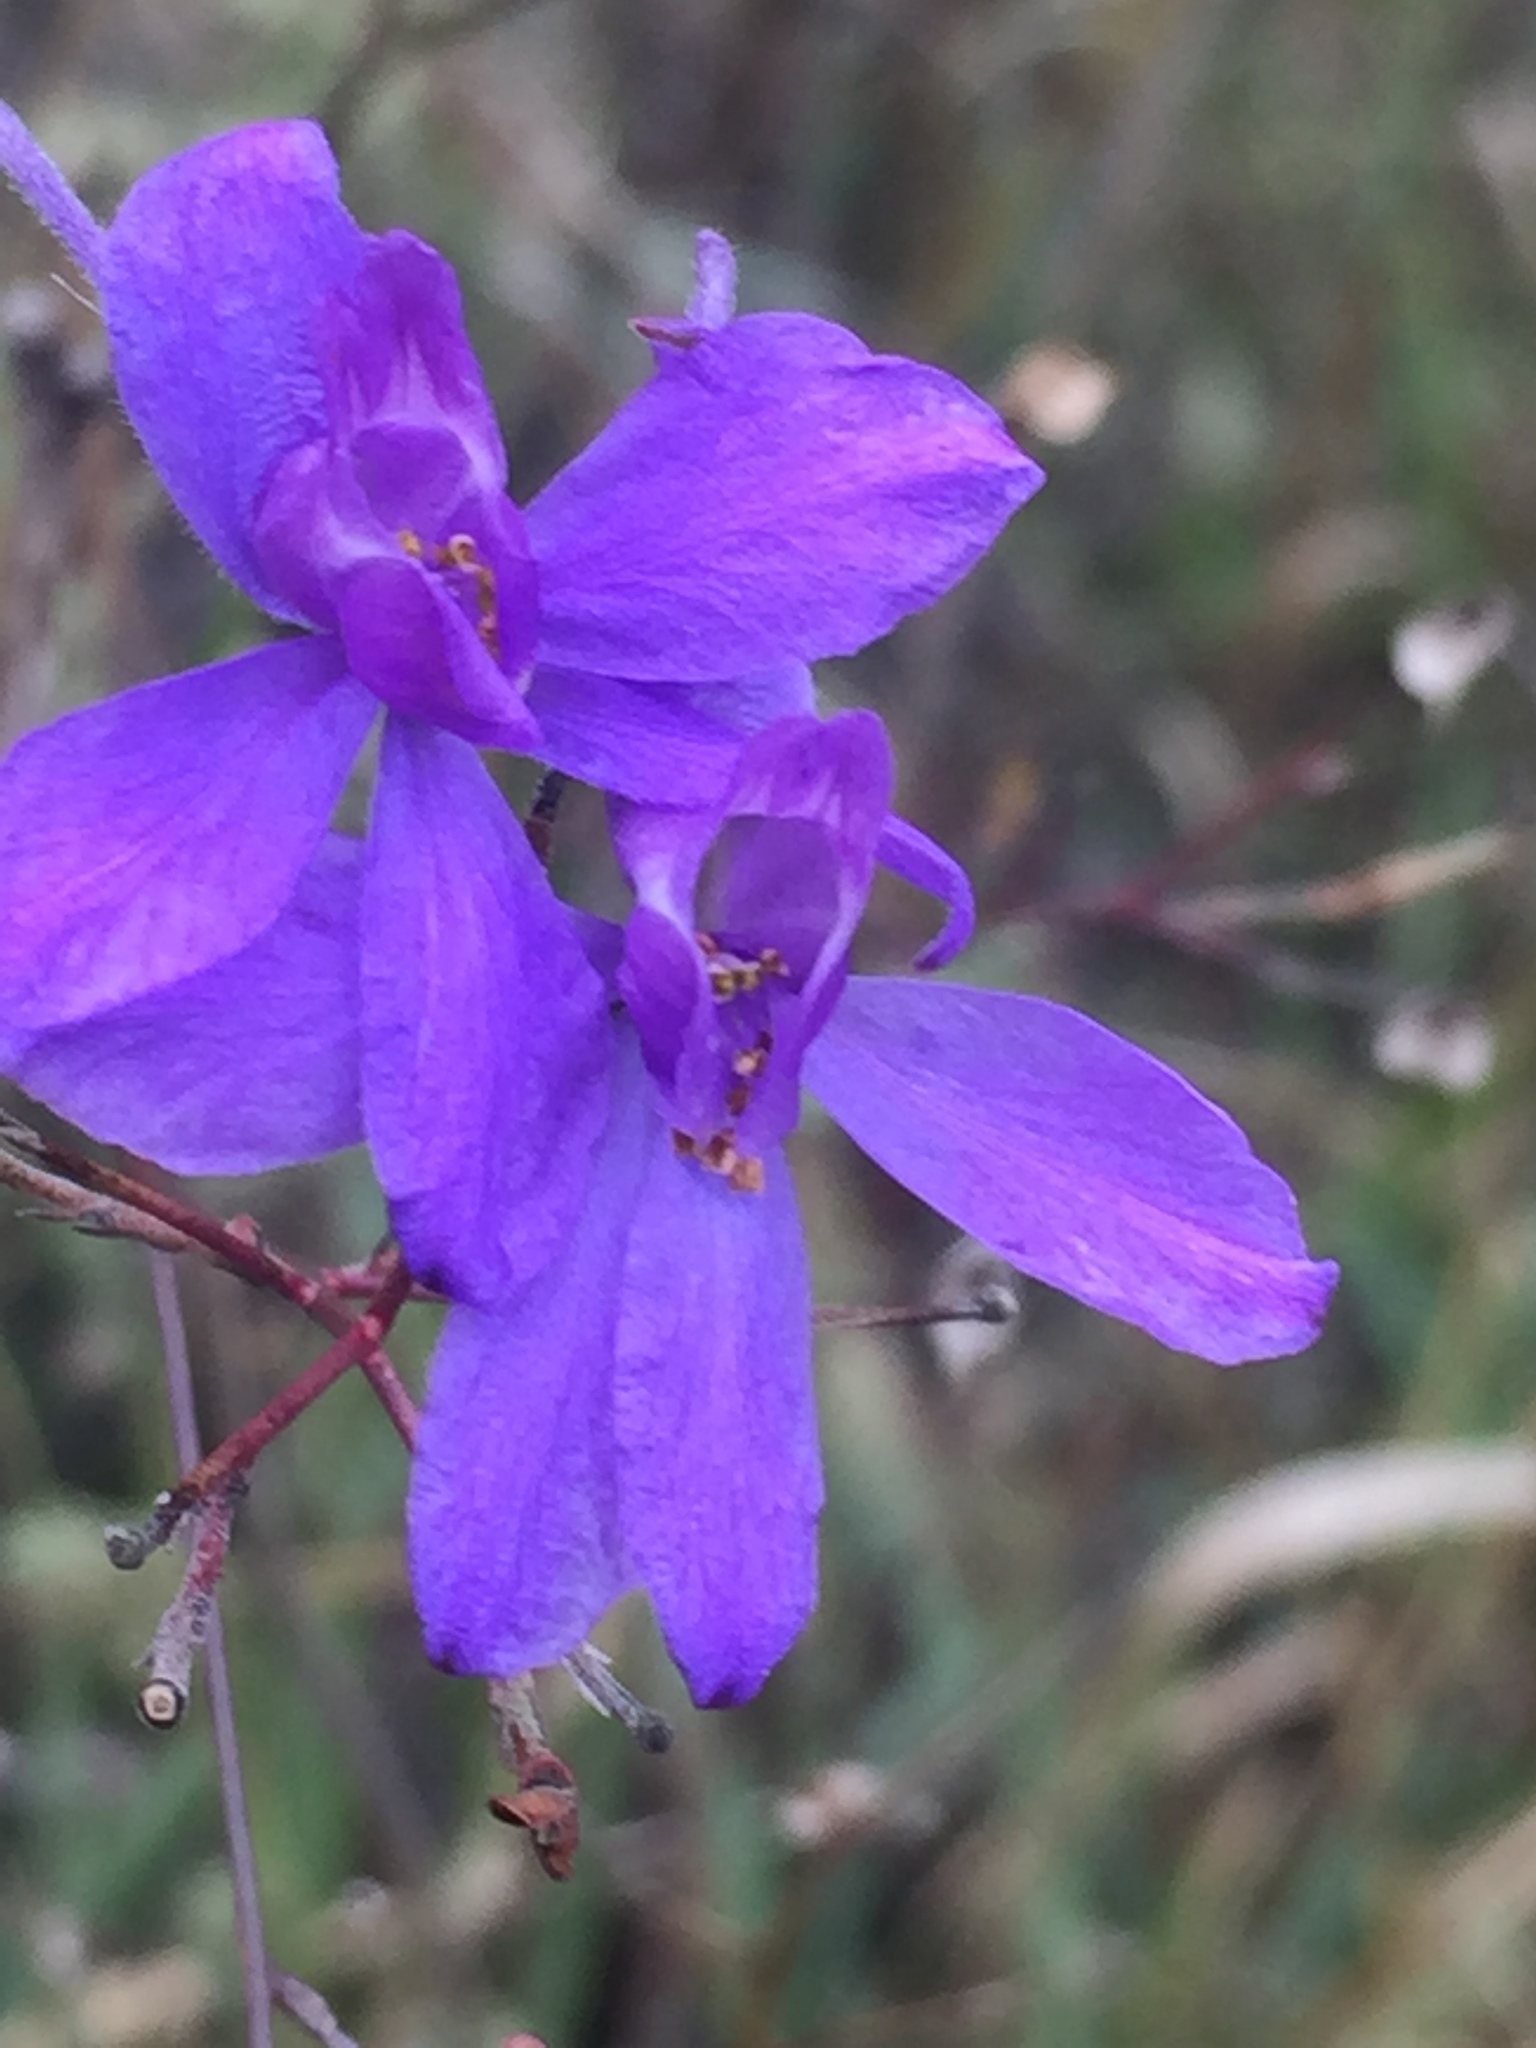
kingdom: Plantae
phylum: Tracheophyta
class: Magnoliopsida
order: Ranunculales
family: Ranunculaceae
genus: Delphinium
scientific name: Delphinium consolida
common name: Branching larkspur
